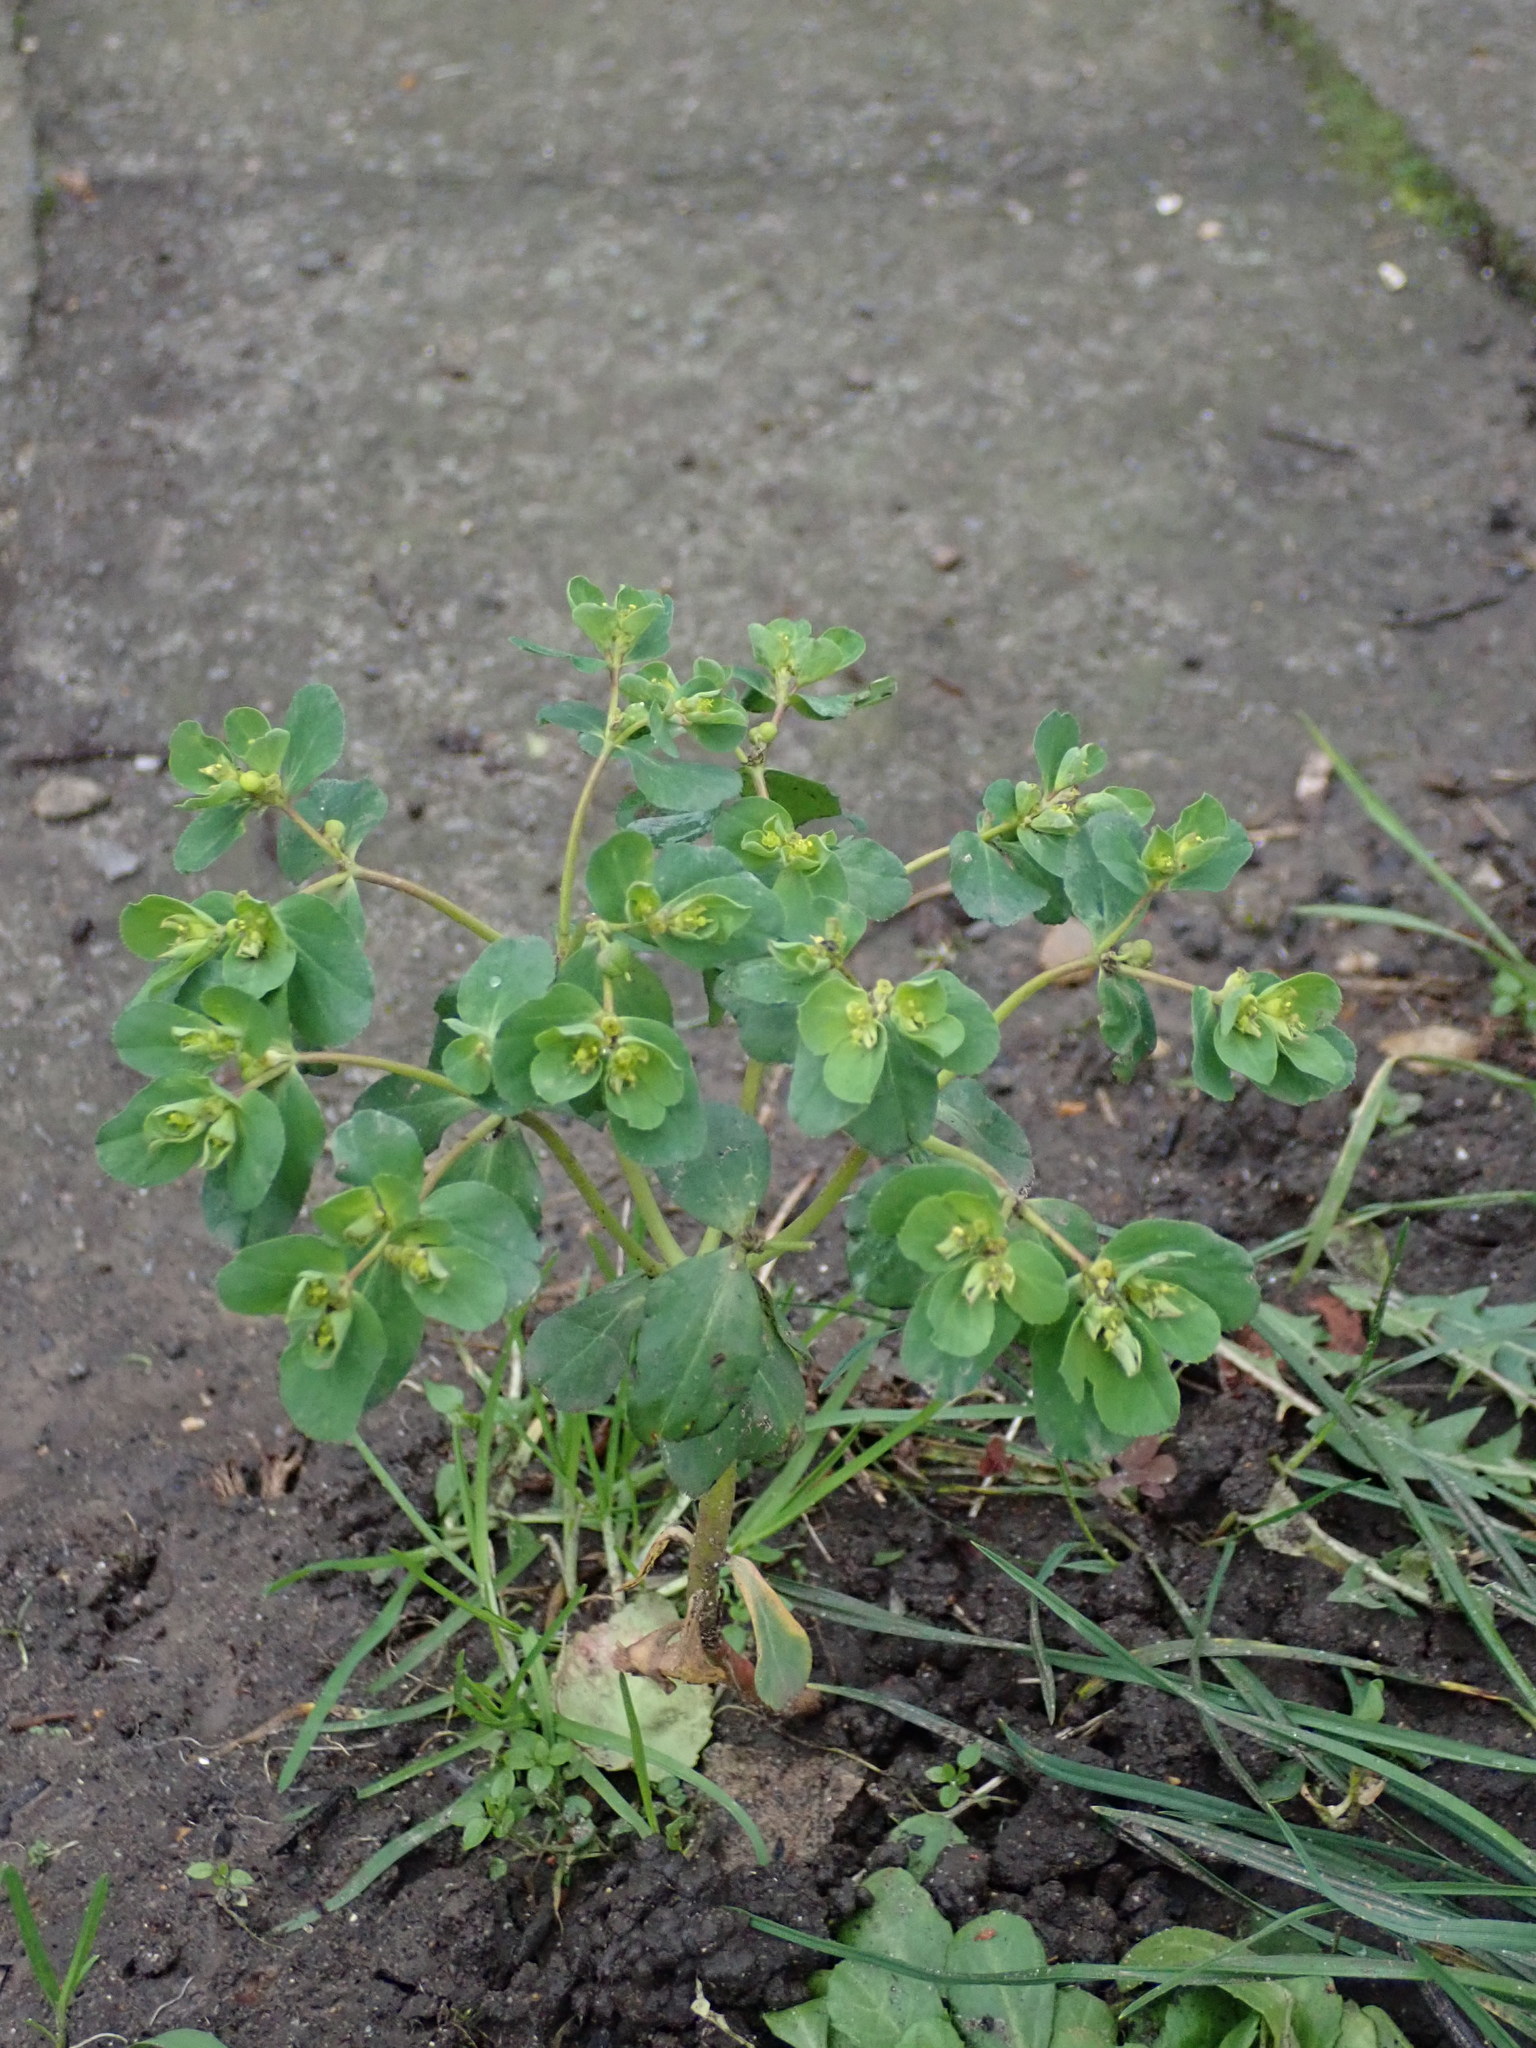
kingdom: Plantae
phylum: Tracheophyta
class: Magnoliopsida
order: Malpighiales
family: Euphorbiaceae
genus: Euphorbia
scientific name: Euphorbia helioscopia
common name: Sun spurge
